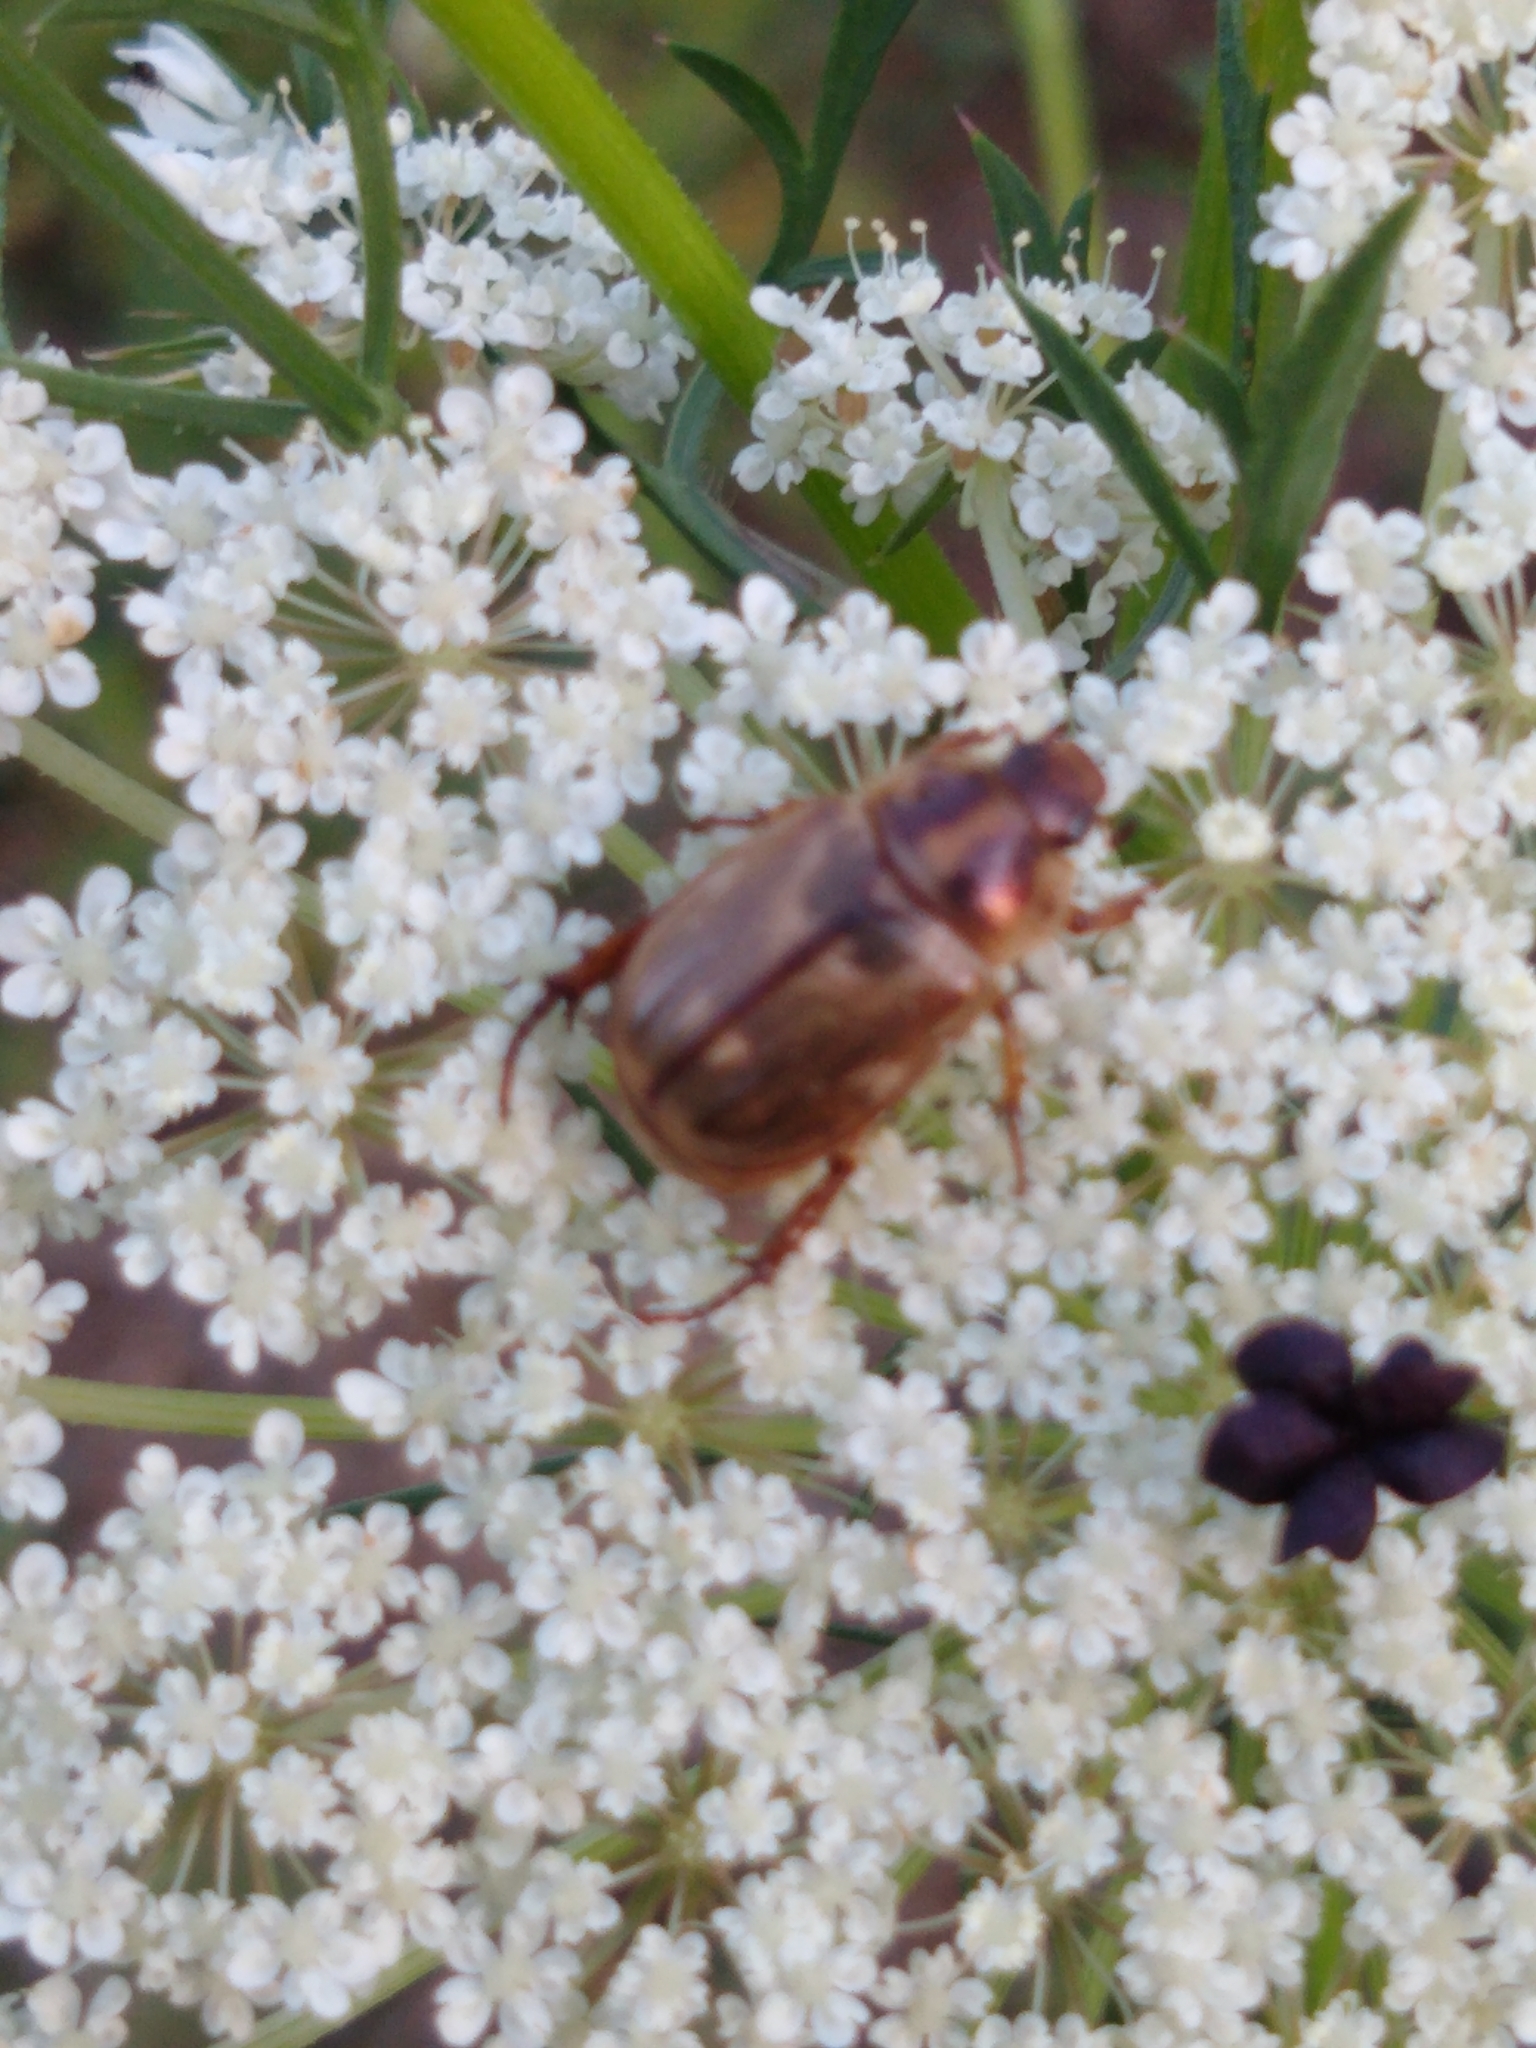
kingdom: Animalia
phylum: Arthropoda
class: Insecta
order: Coleoptera
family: Scarabaeidae
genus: Exomala
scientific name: Exomala orientalis
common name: Oriental beetle
